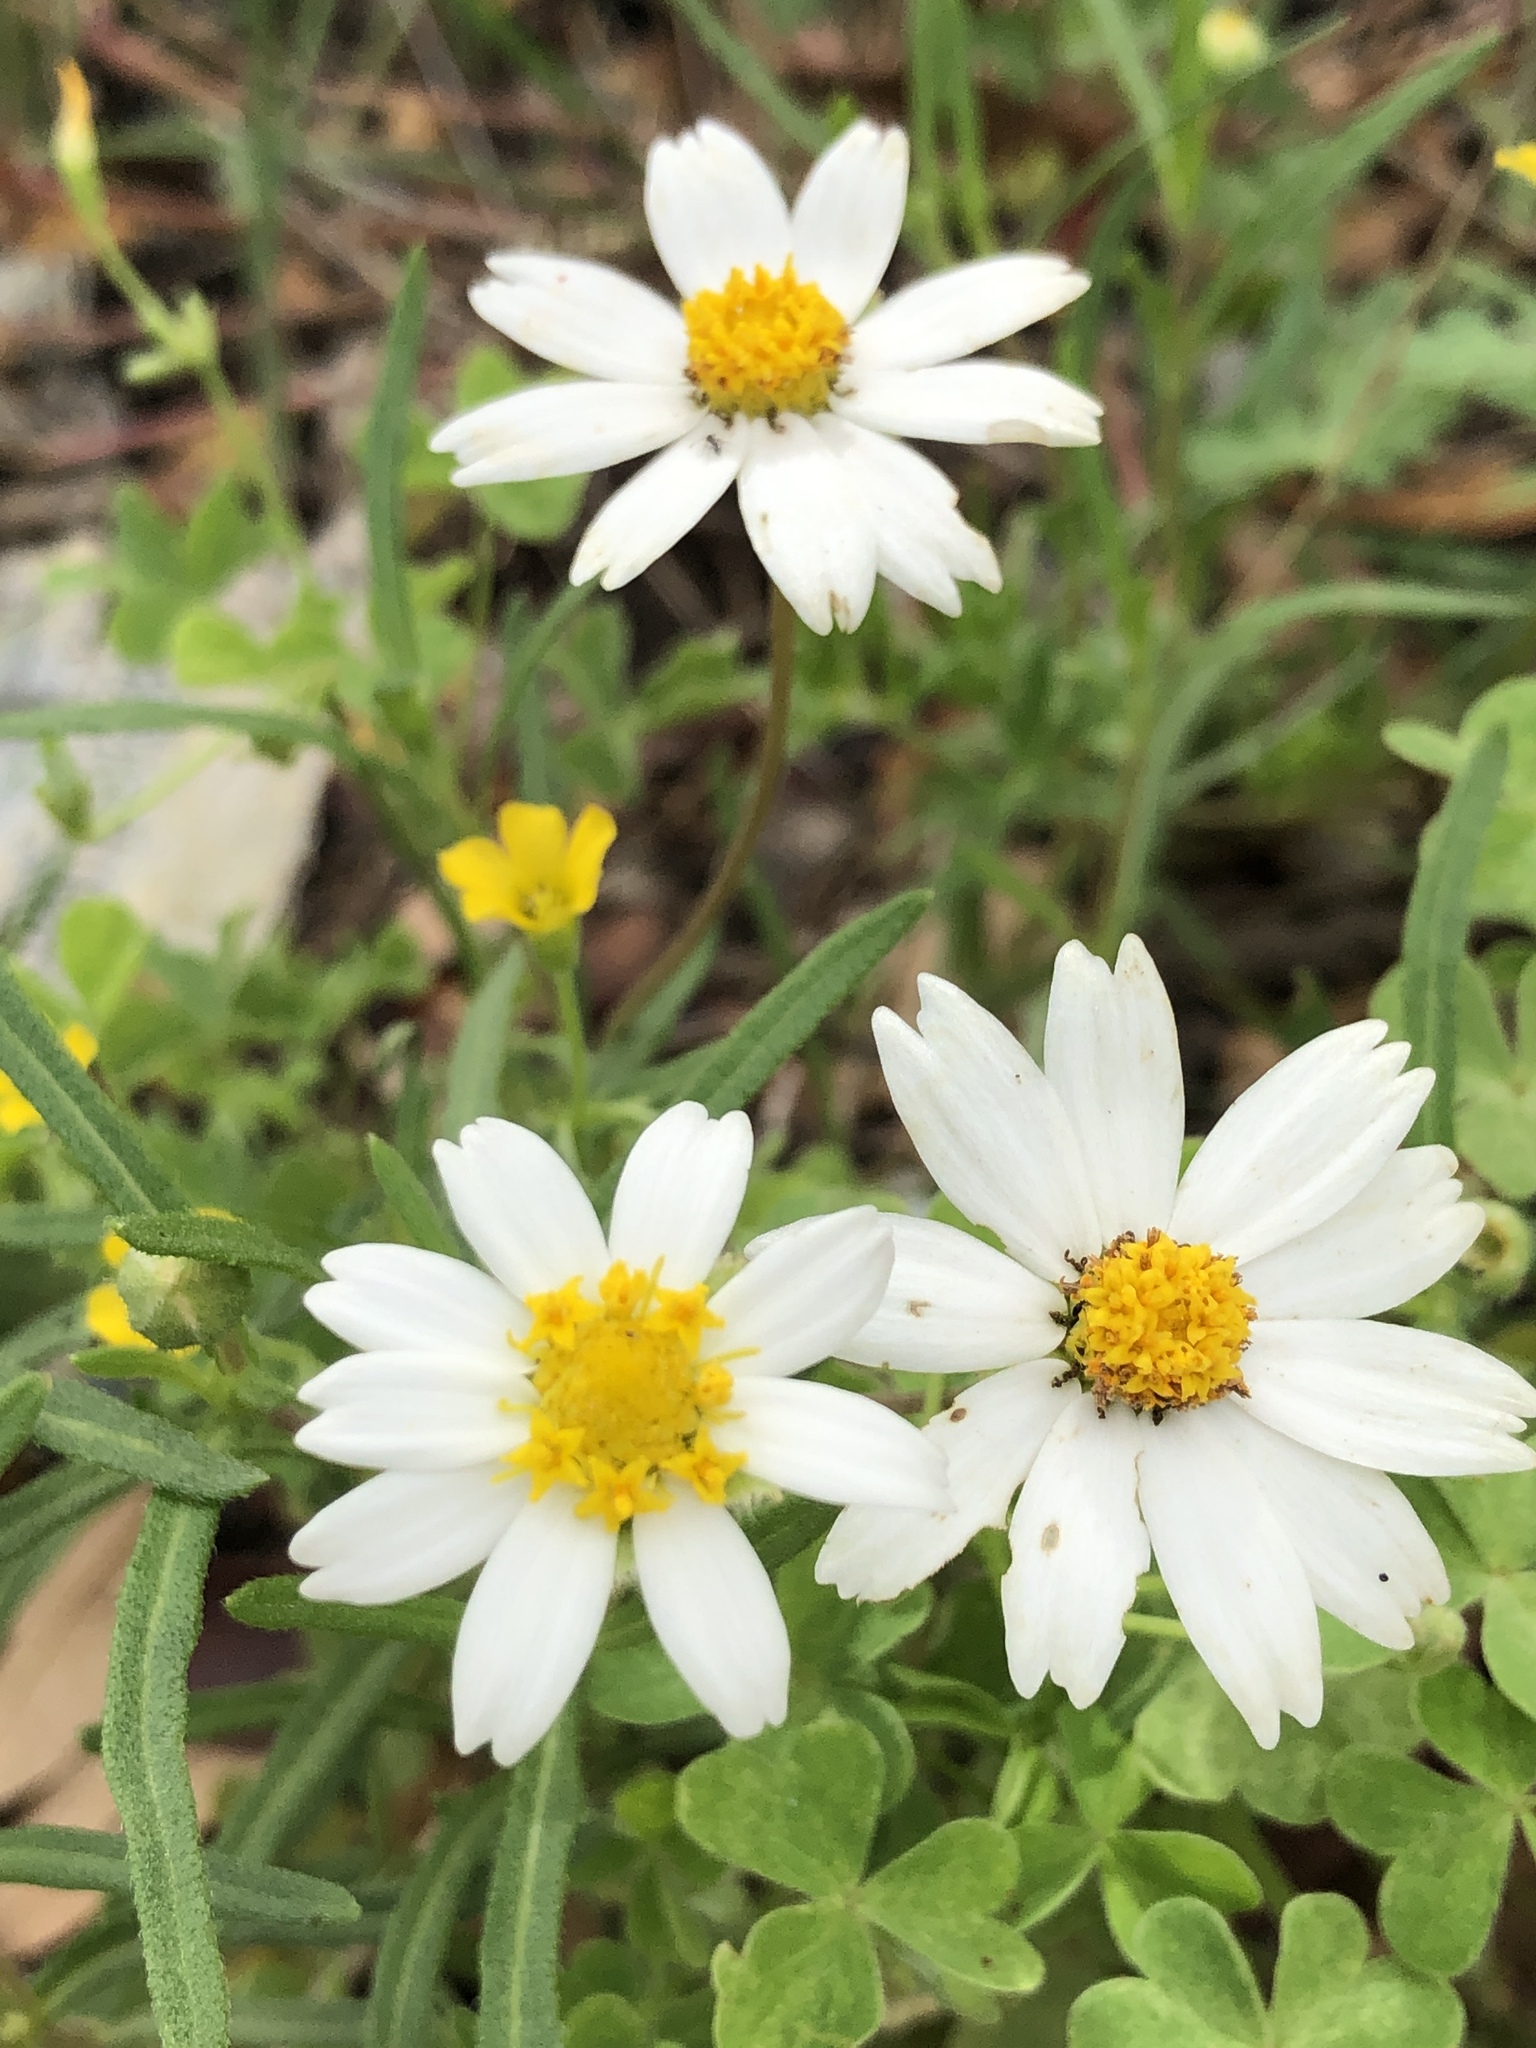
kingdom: Plantae
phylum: Tracheophyta
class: Magnoliopsida
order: Asterales
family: Asteraceae
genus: Melampodium
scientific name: Melampodium leucanthum
